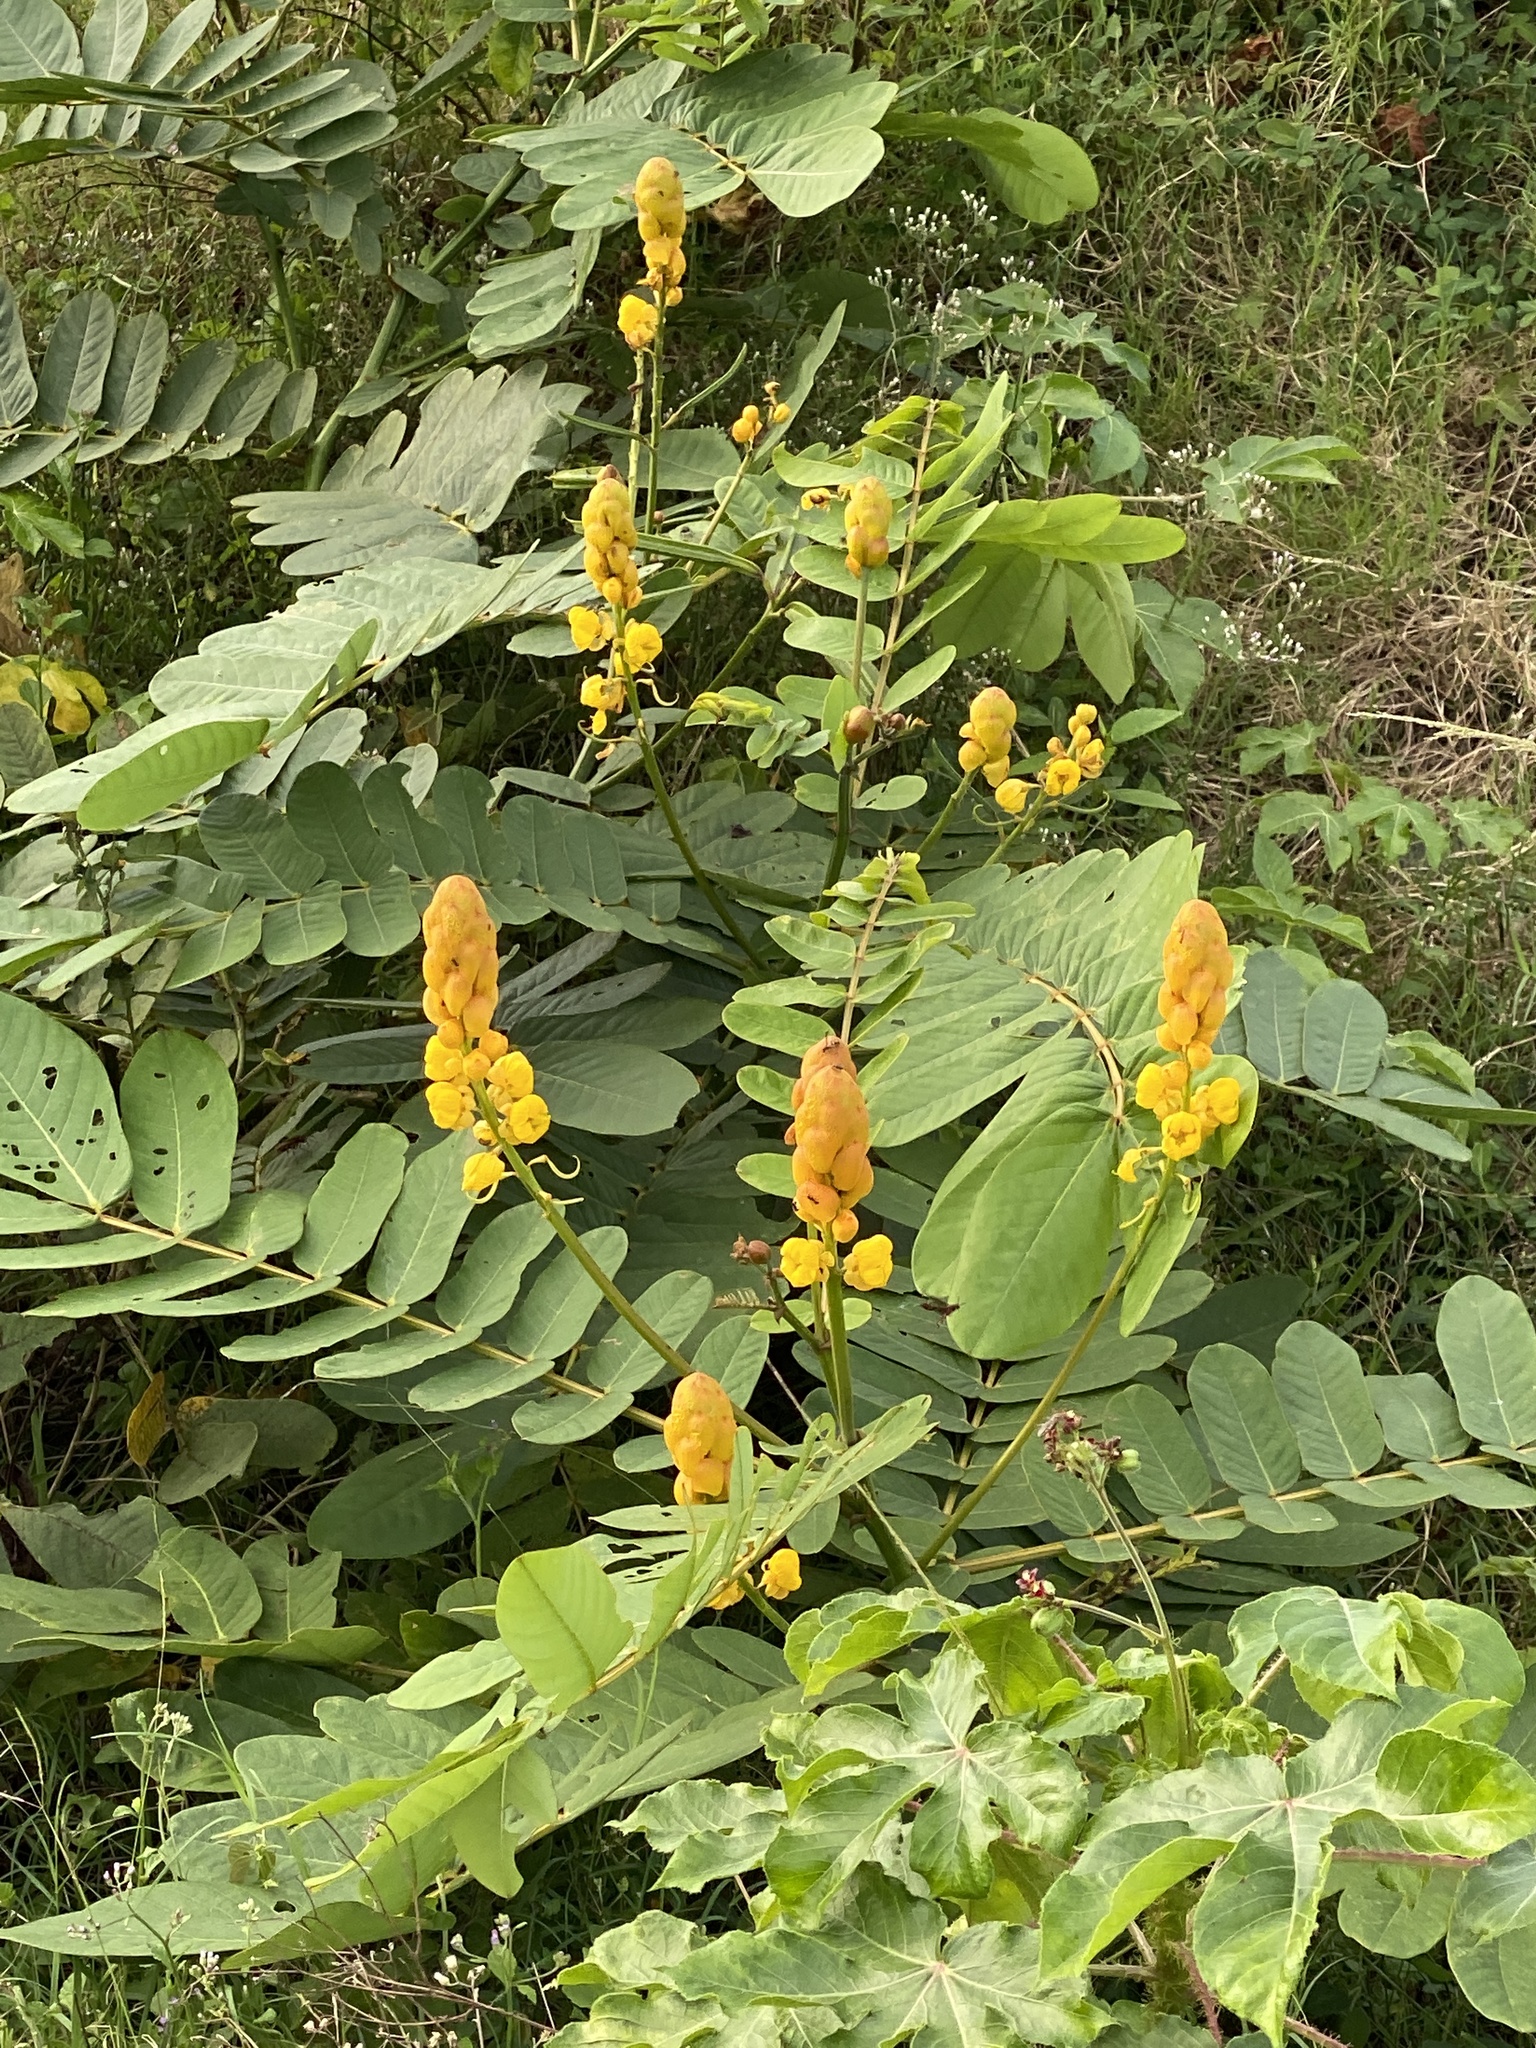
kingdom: Plantae
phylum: Tracheophyta
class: Magnoliopsida
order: Fabales
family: Fabaceae
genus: Senna
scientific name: Senna alata
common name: Emperor's candlesticks
